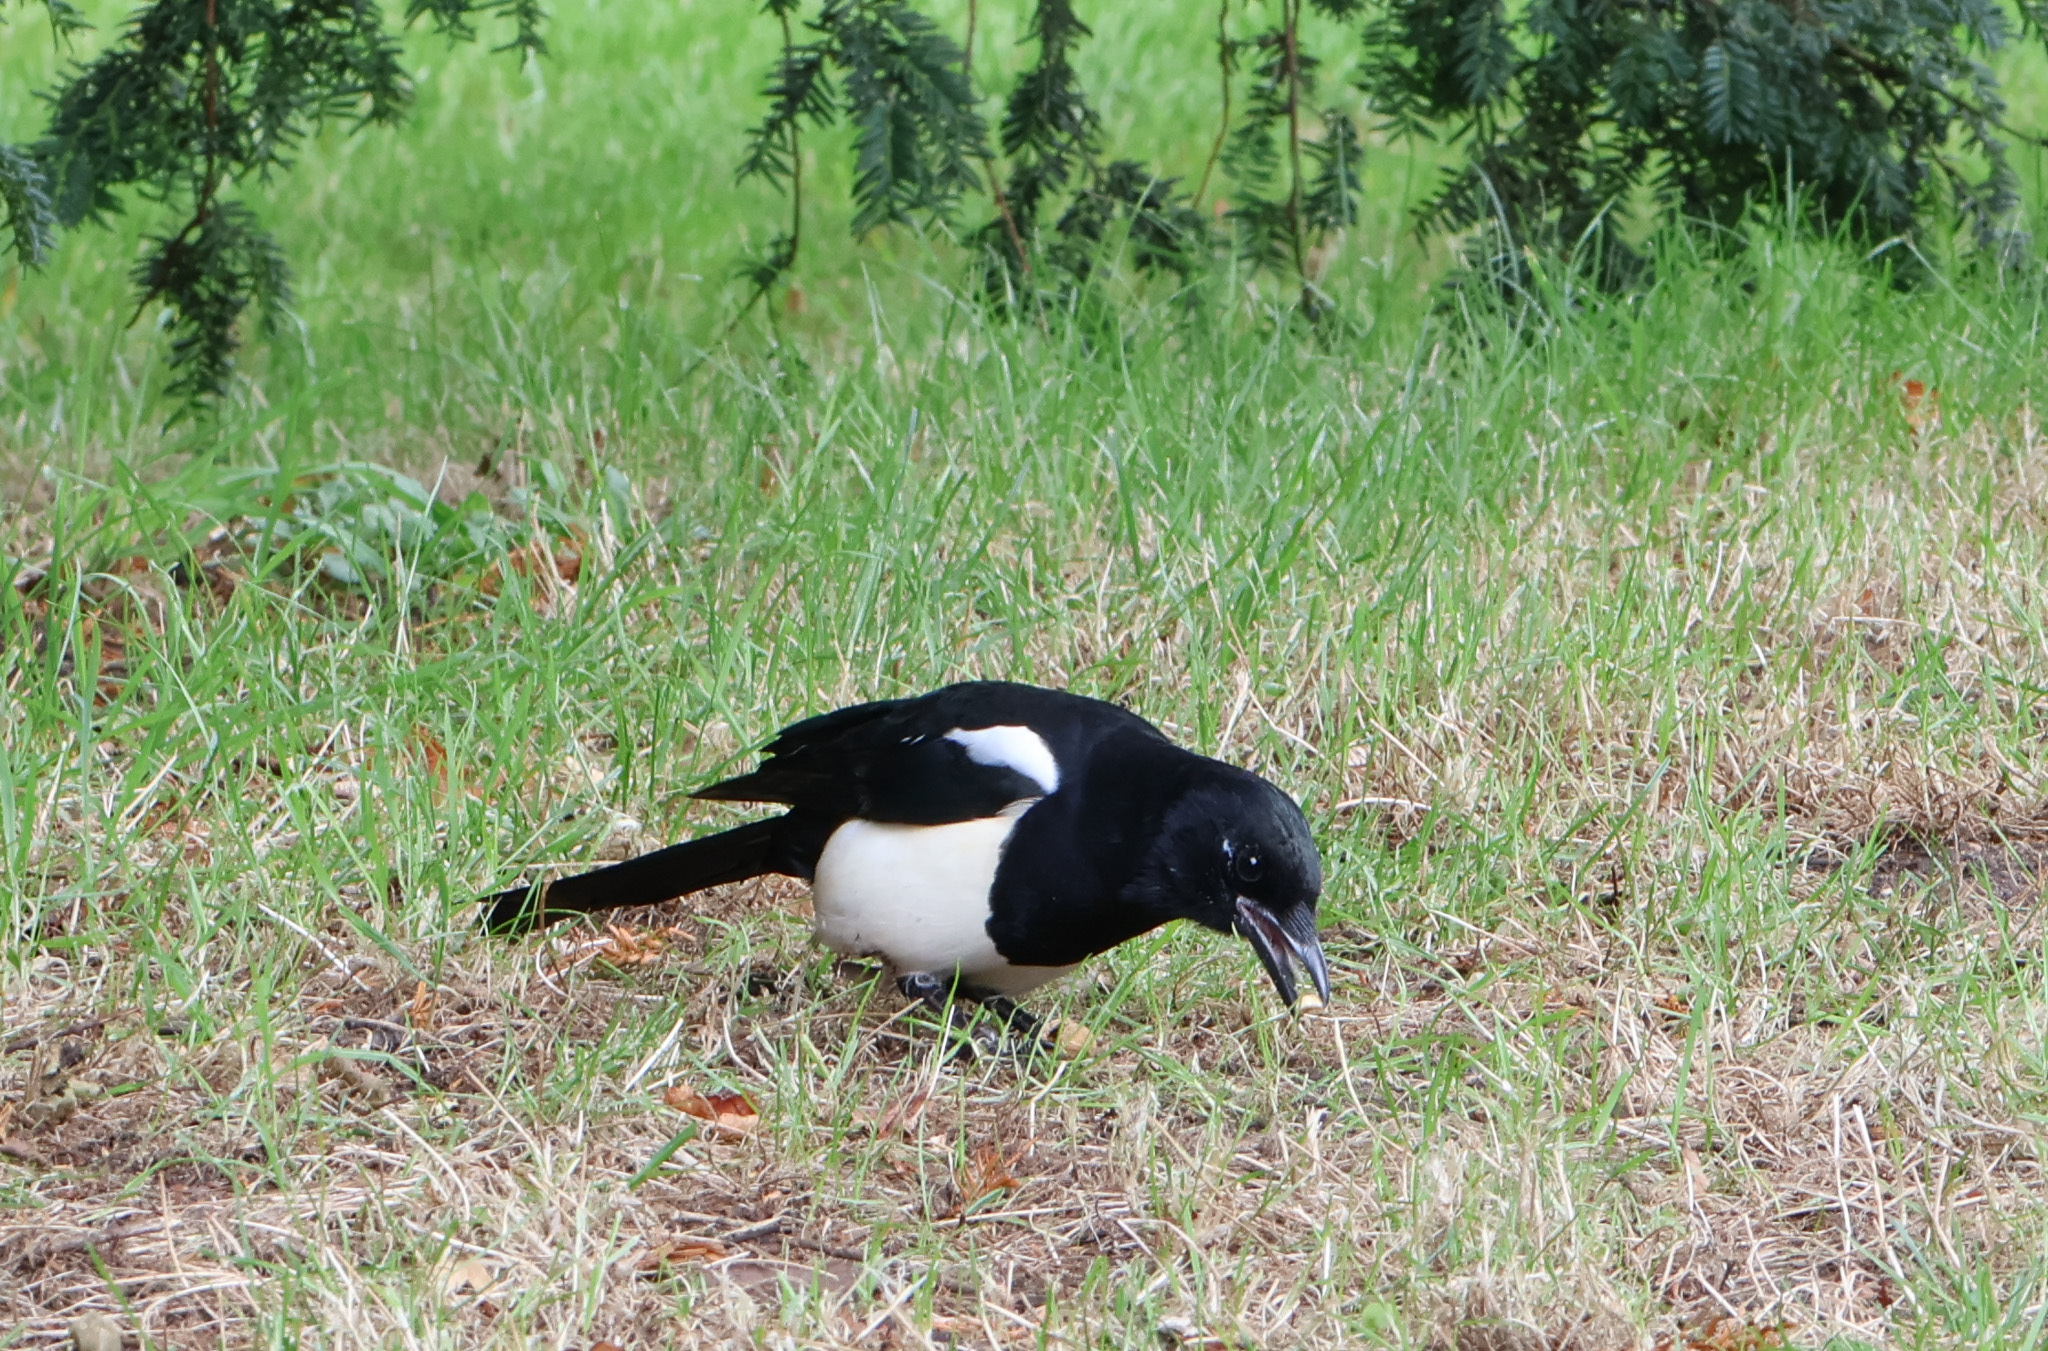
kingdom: Animalia
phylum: Chordata
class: Aves
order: Passeriformes
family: Corvidae
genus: Pica
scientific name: Pica pica
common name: Eurasian magpie
